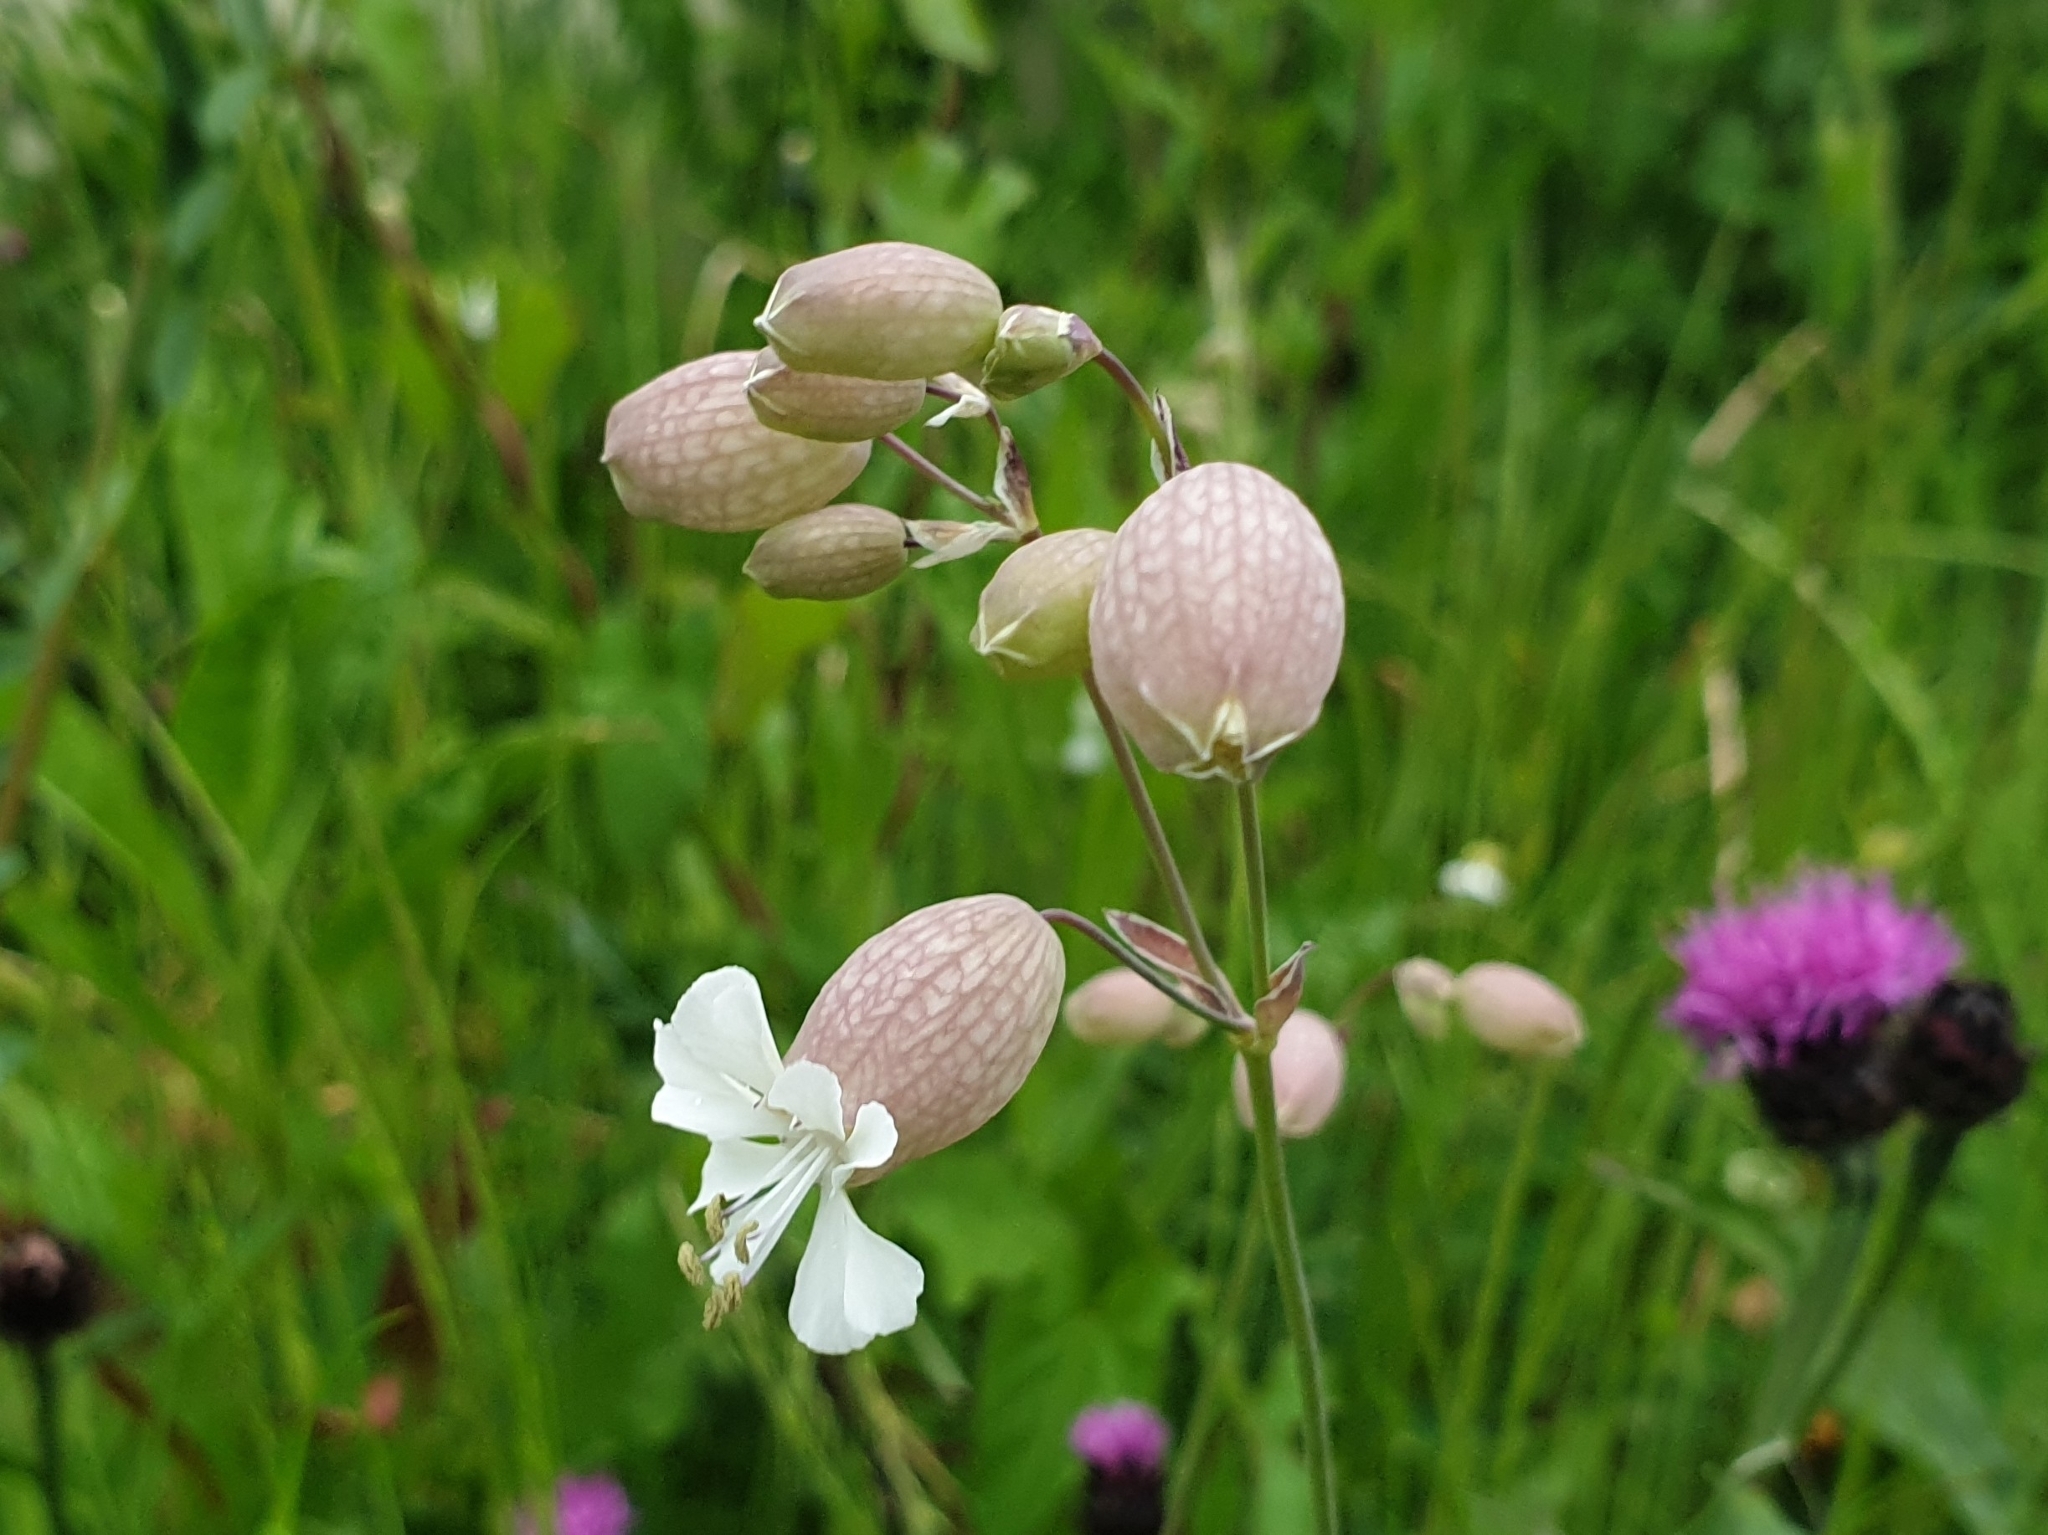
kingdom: Plantae
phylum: Tracheophyta
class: Magnoliopsida
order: Caryophyllales
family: Caryophyllaceae
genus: Silene
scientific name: Silene vulgaris
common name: Bladder campion
